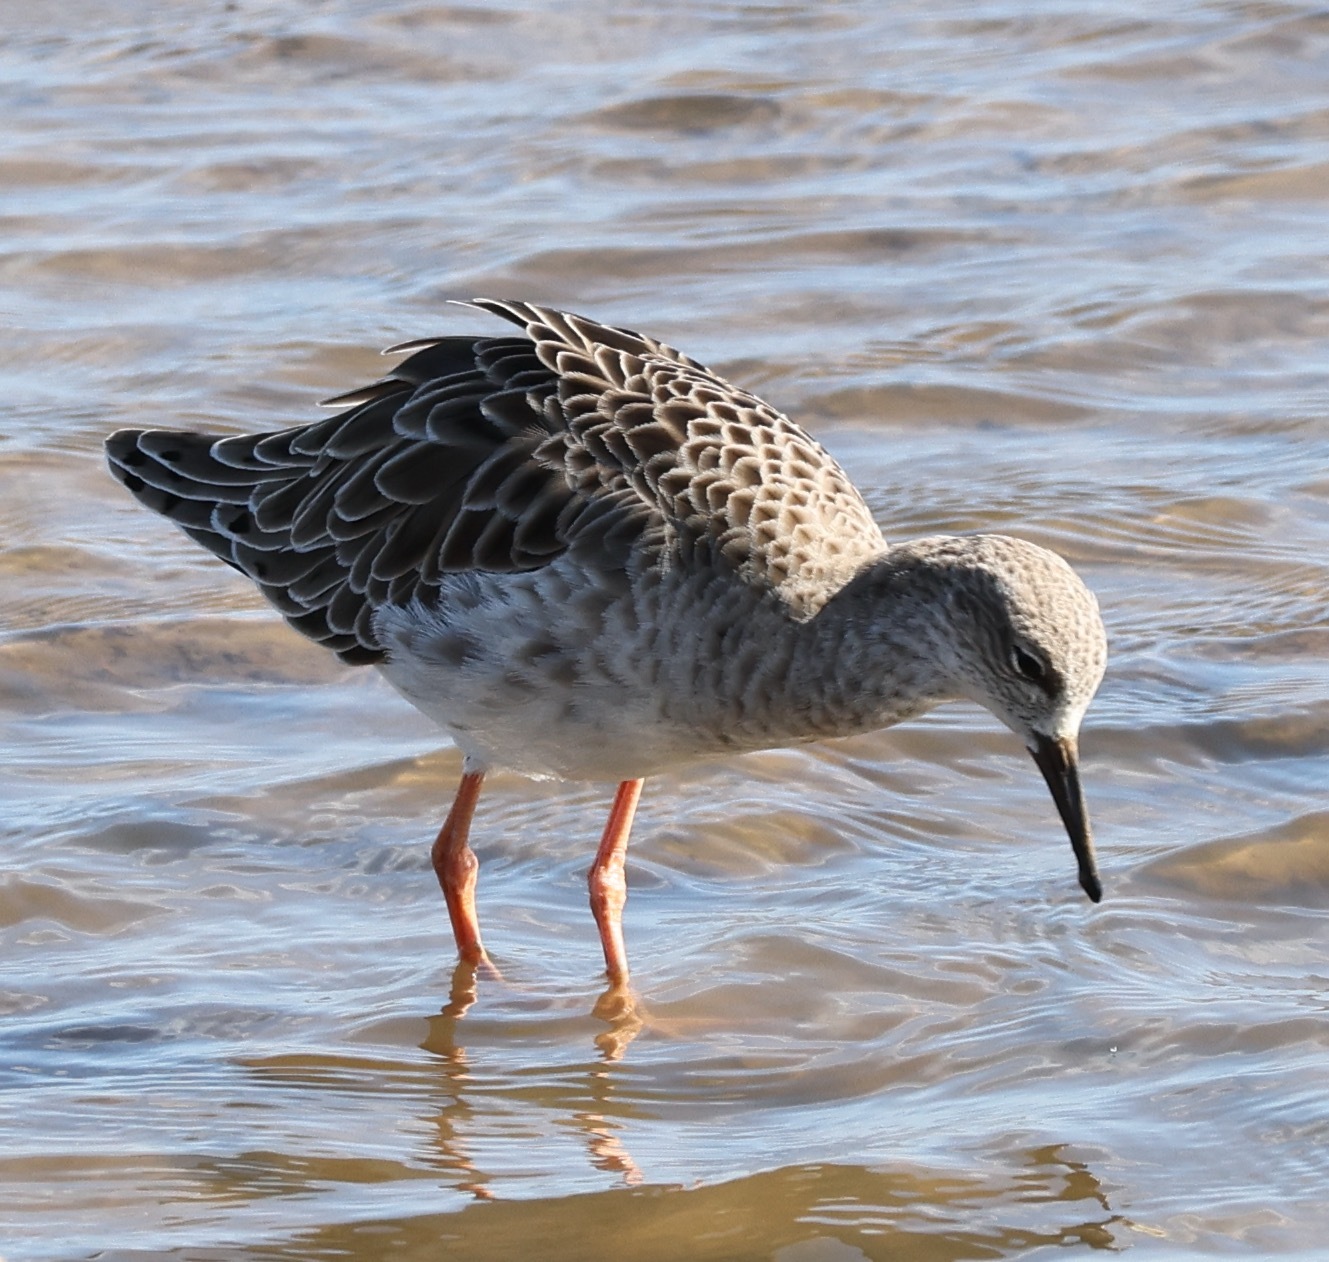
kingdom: Animalia
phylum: Chordata
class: Aves
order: Charadriiformes
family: Scolopacidae
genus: Calidris
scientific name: Calidris pugnax
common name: Ruff
